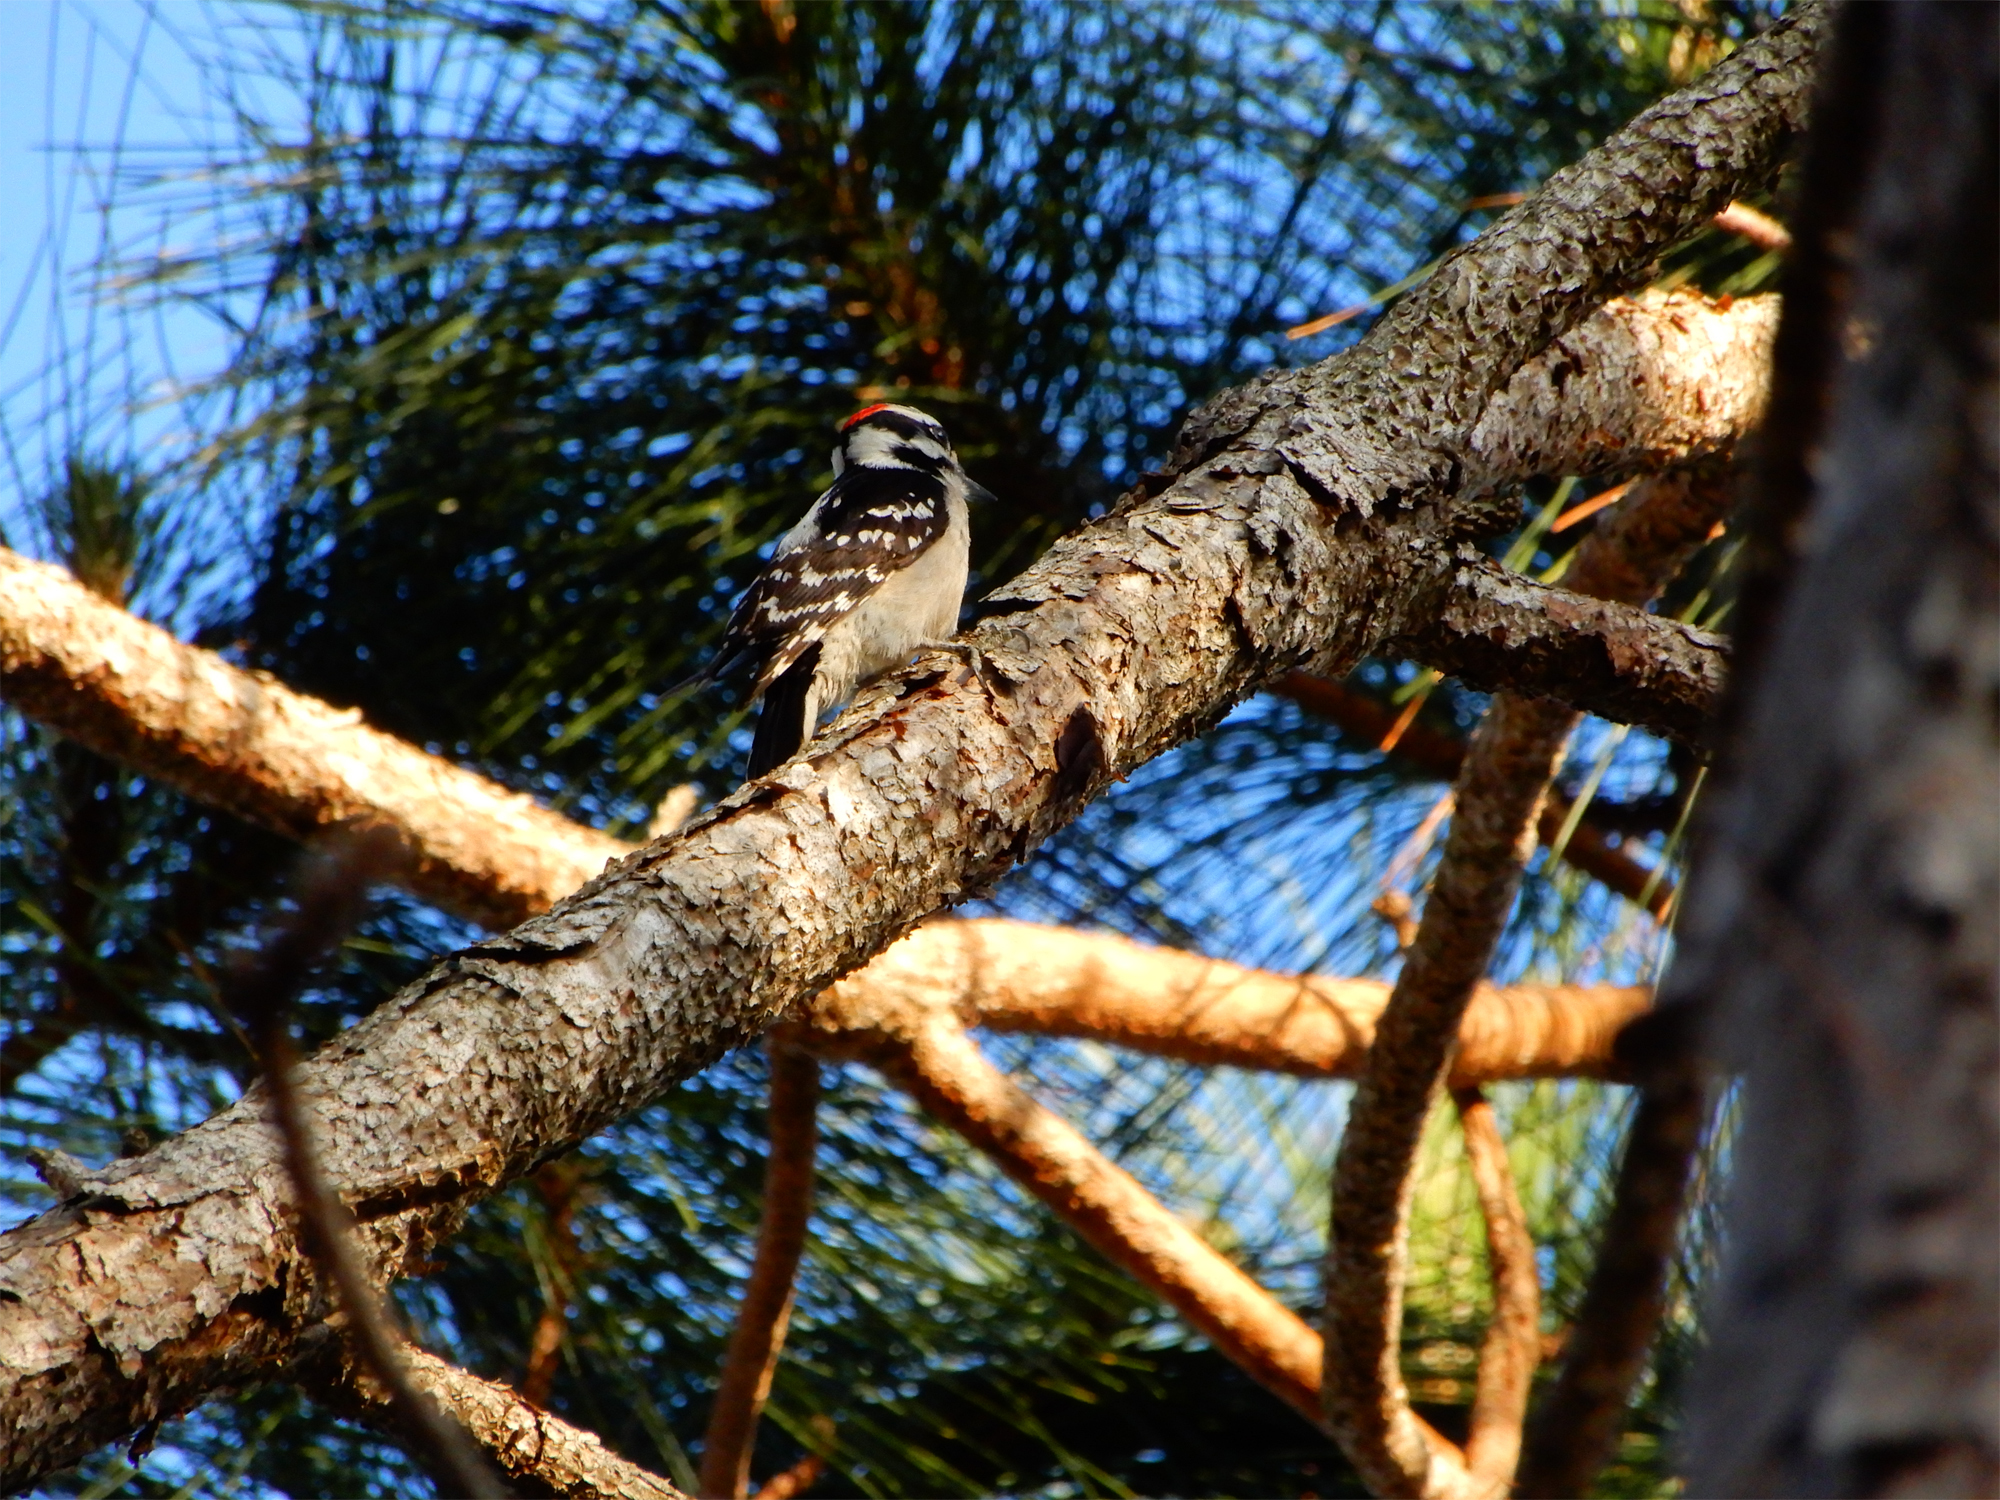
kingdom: Animalia
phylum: Chordata
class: Aves
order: Piciformes
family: Picidae
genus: Dryobates
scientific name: Dryobates pubescens
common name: Downy woodpecker
